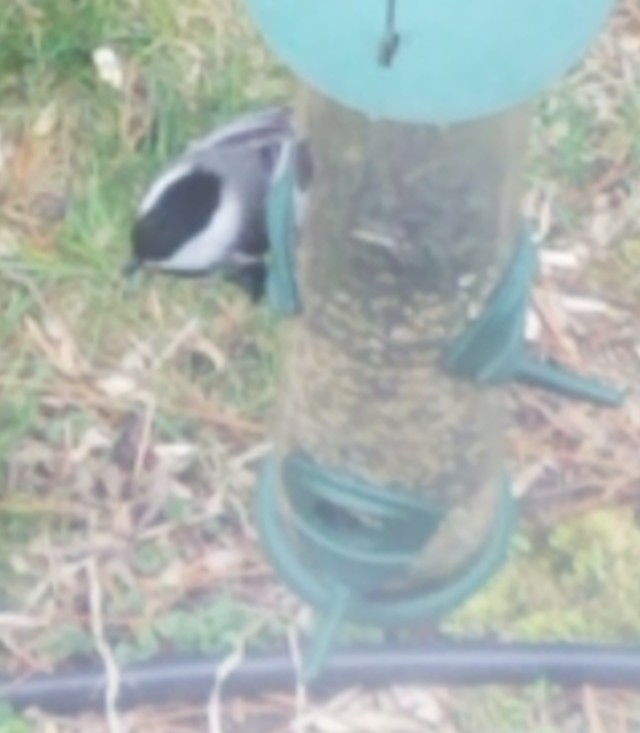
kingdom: Animalia
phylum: Chordata
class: Aves
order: Passeriformes
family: Paridae
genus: Poecile
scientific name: Poecile atricapillus
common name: Black-capped chickadee
